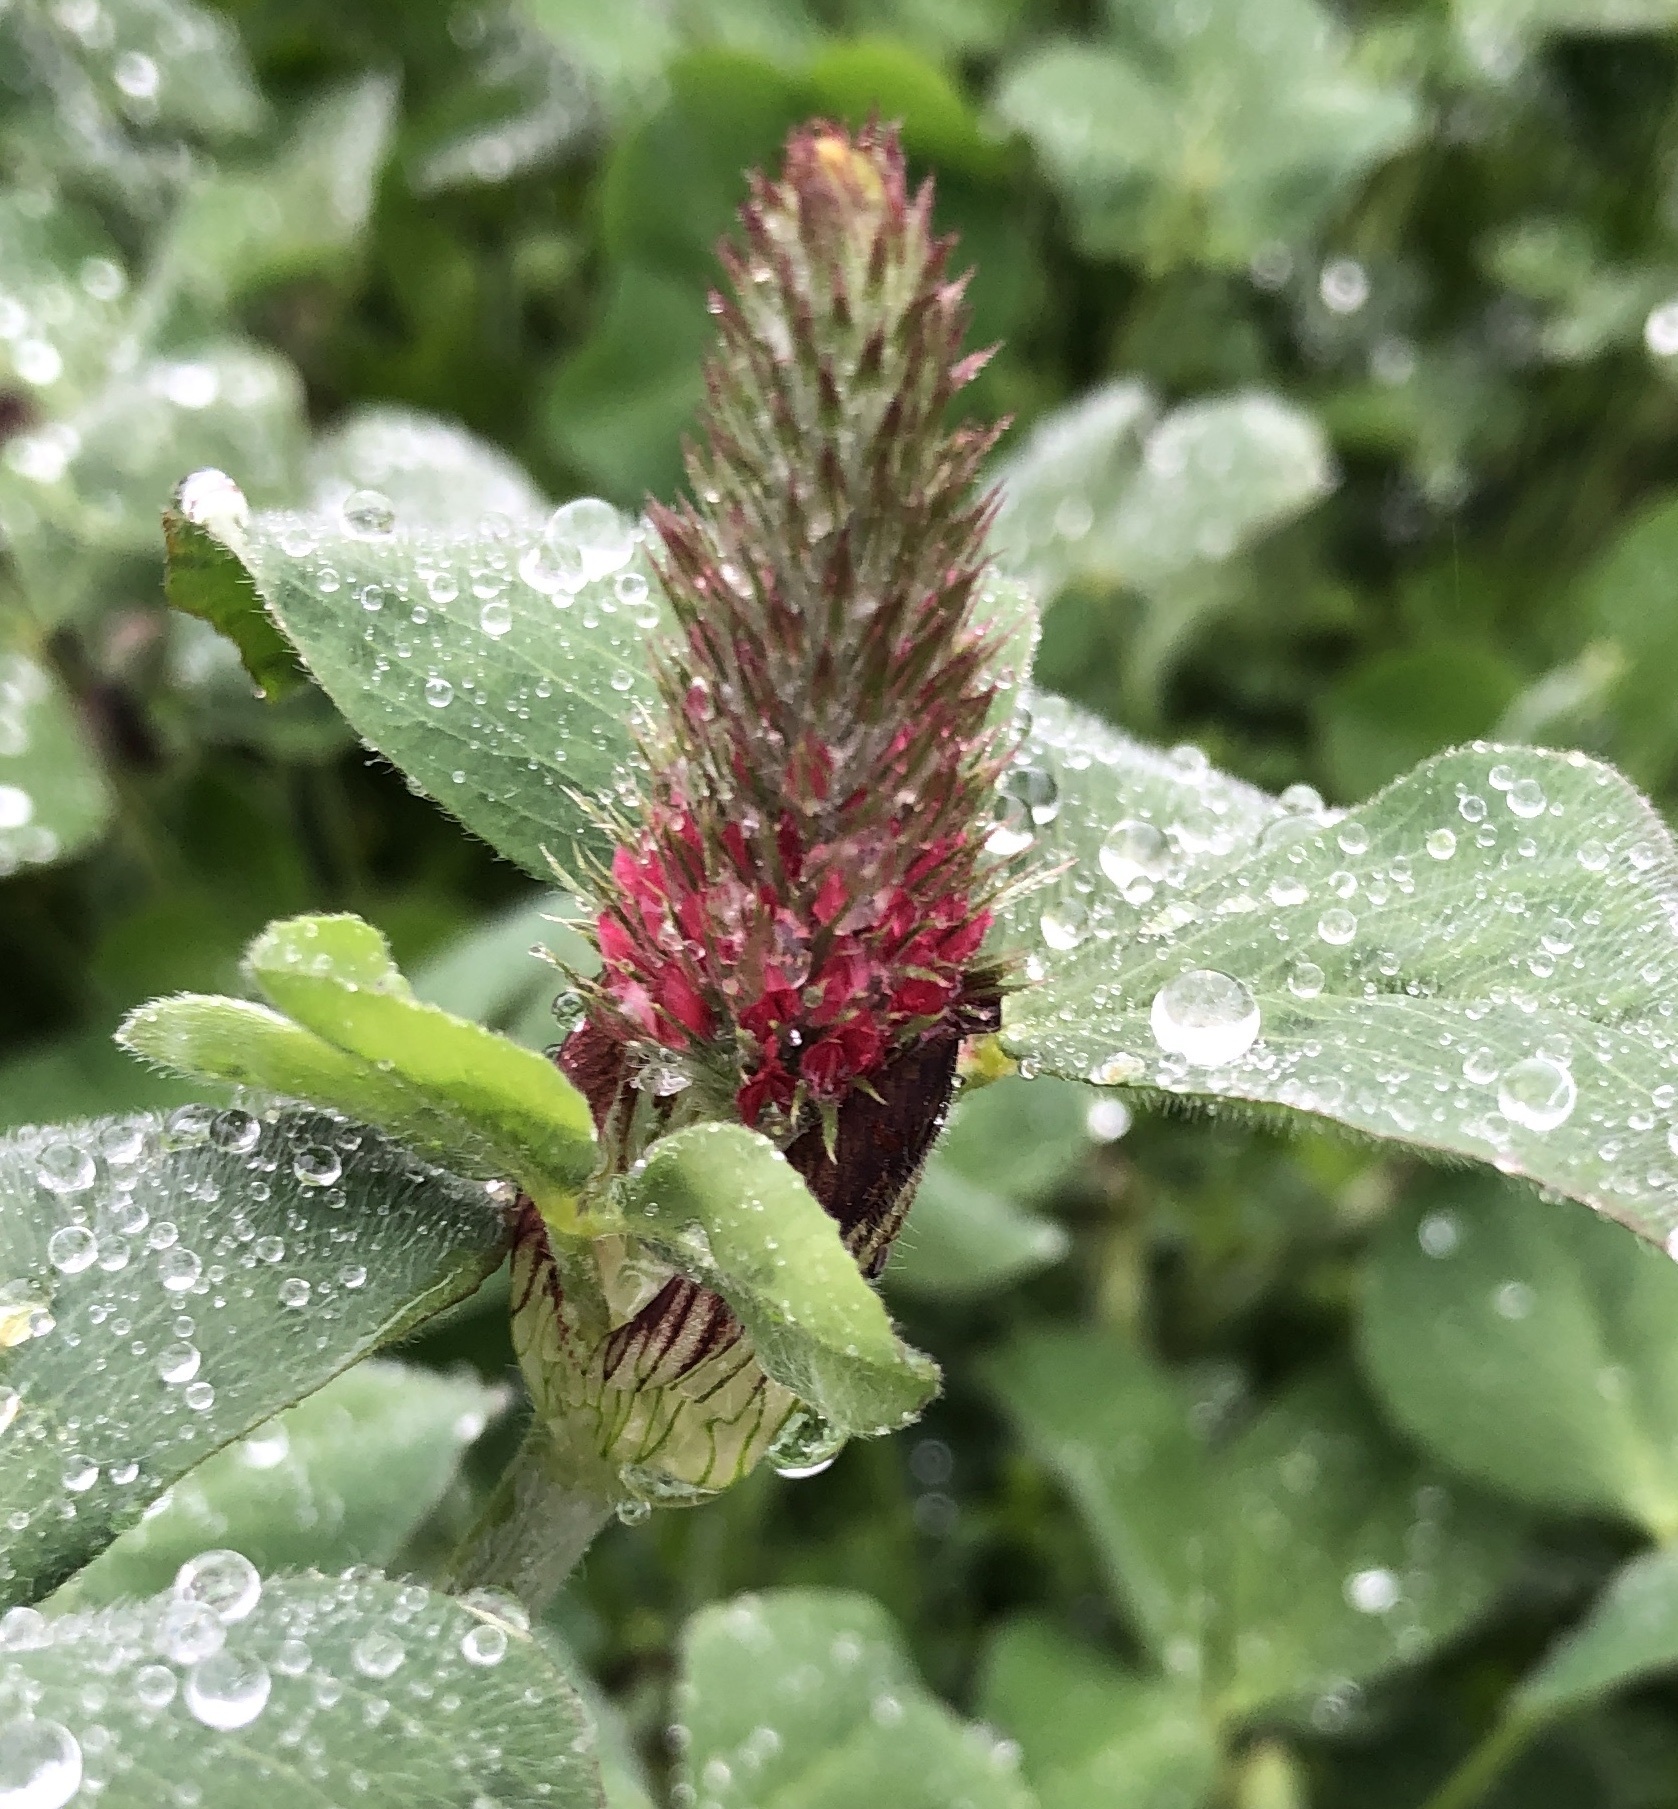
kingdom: Plantae
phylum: Tracheophyta
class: Magnoliopsida
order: Fabales
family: Fabaceae
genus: Trifolium
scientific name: Trifolium incarnatum
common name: Crimson clover
